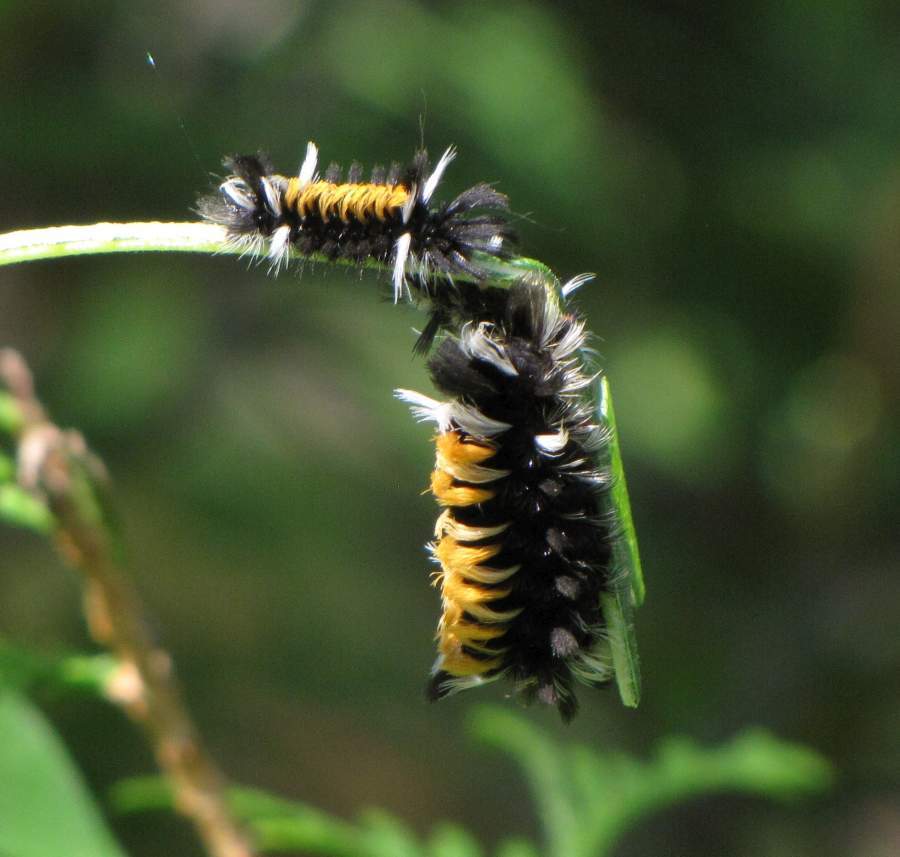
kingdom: Animalia
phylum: Arthropoda
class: Insecta
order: Lepidoptera
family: Erebidae
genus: Euchaetes
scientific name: Euchaetes egle
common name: Milkweed tussock moth
